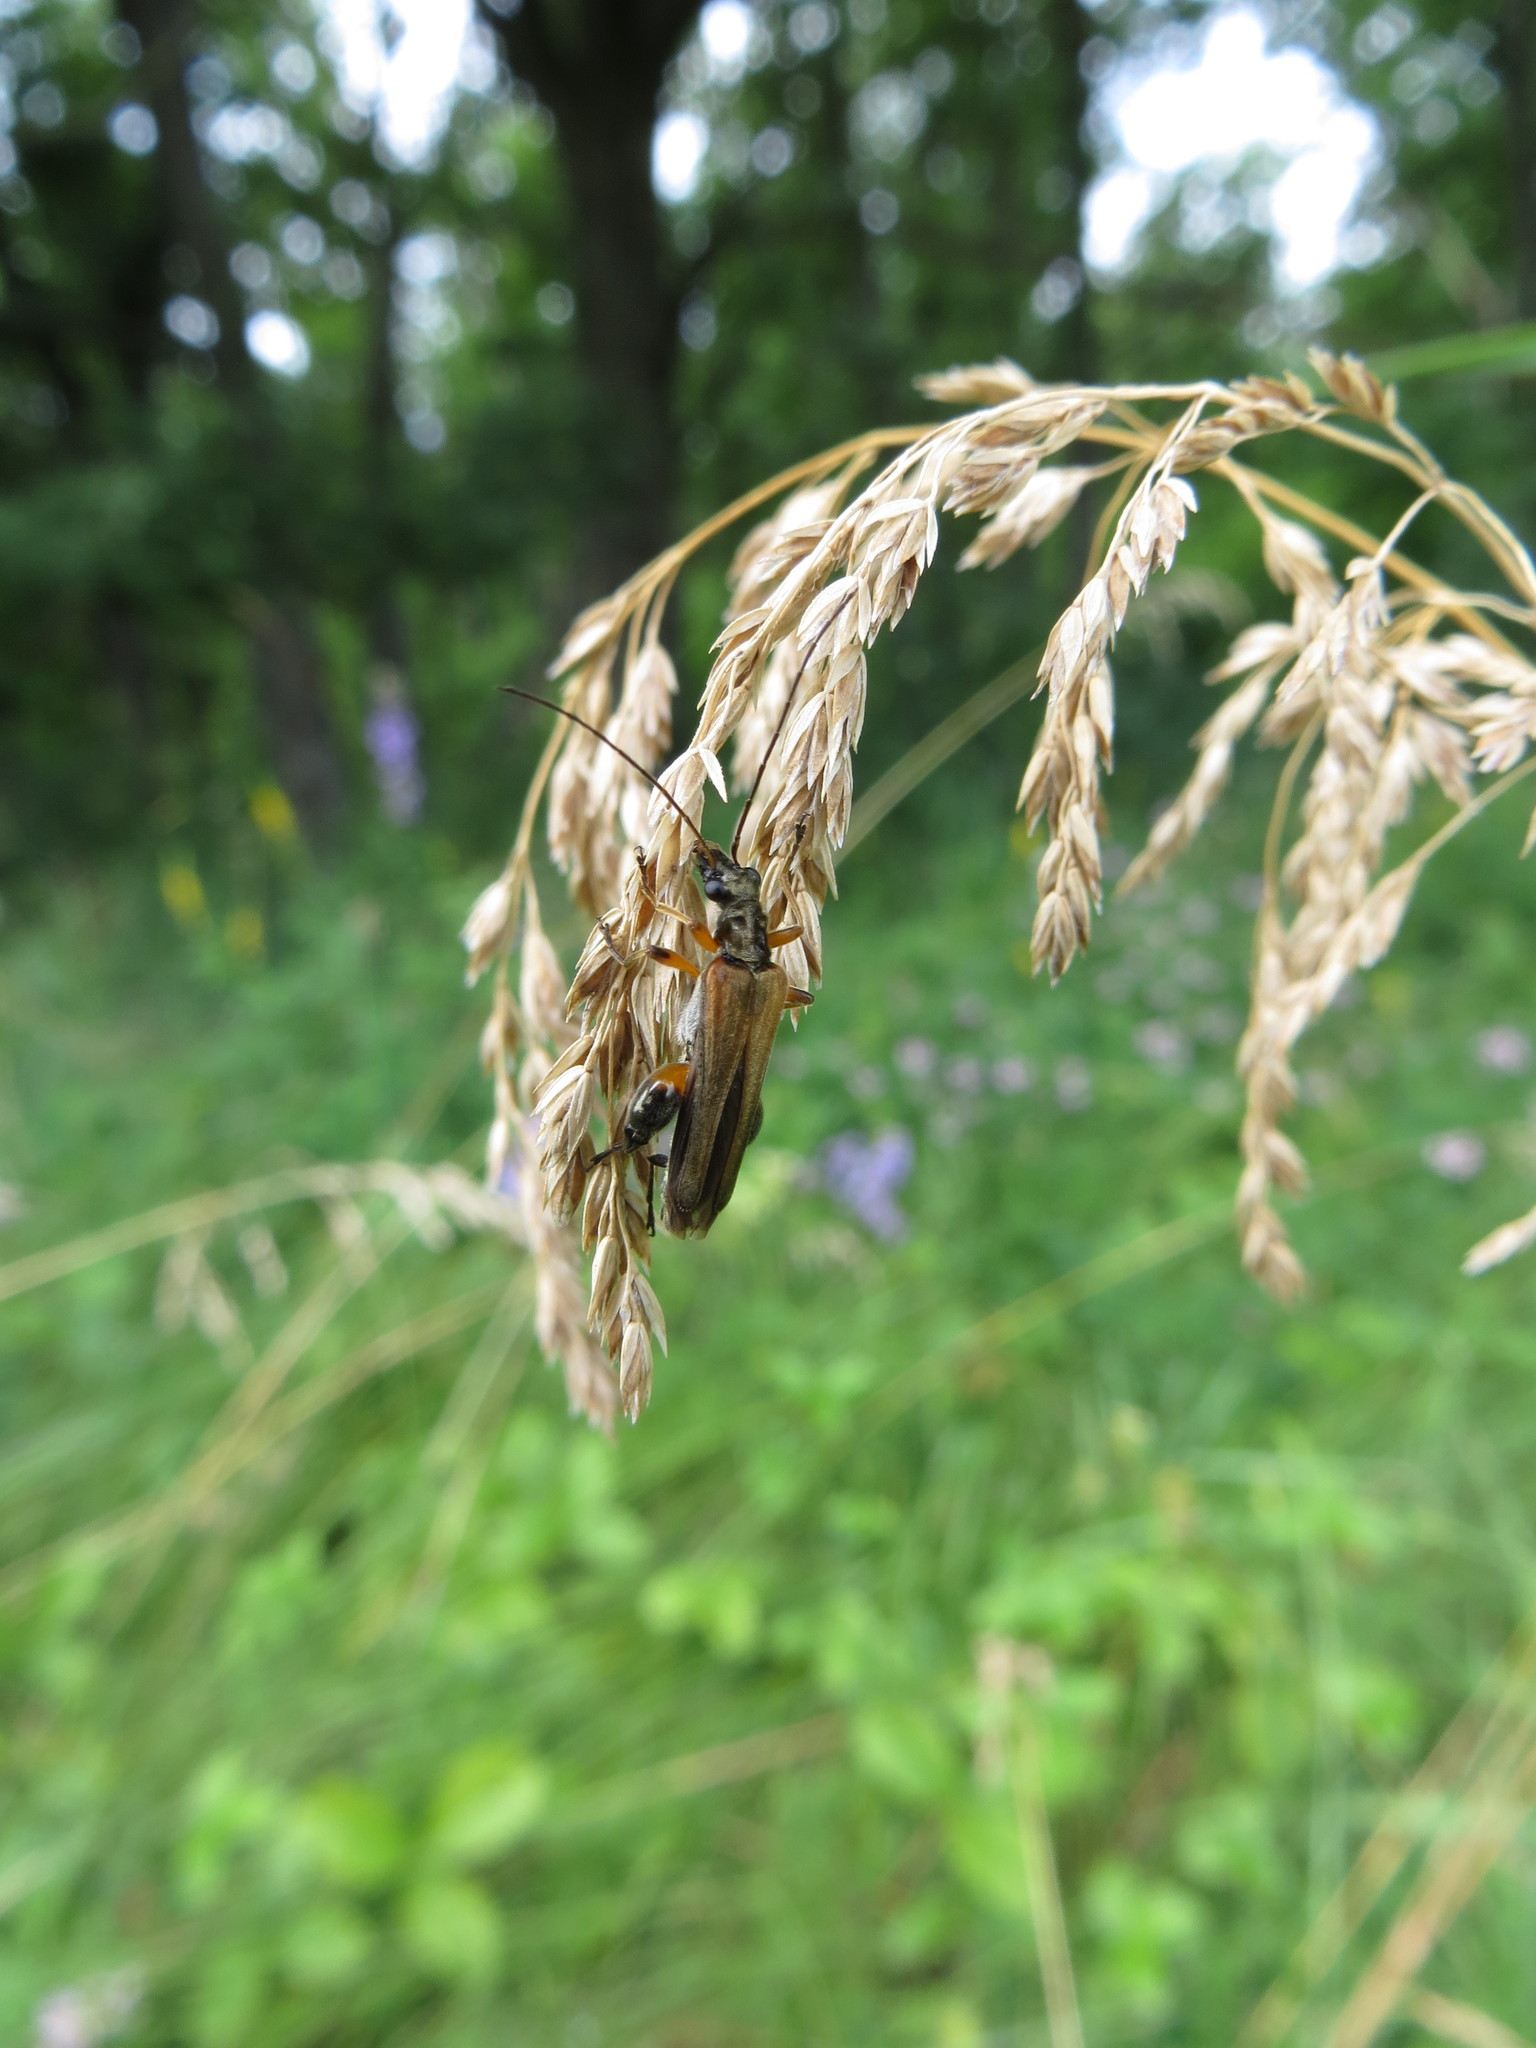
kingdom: Animalia
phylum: Arthropoda
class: Insecta
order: Coleoptera
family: Oedemeridae
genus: Oedemera
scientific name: Oedemera podagrariae
